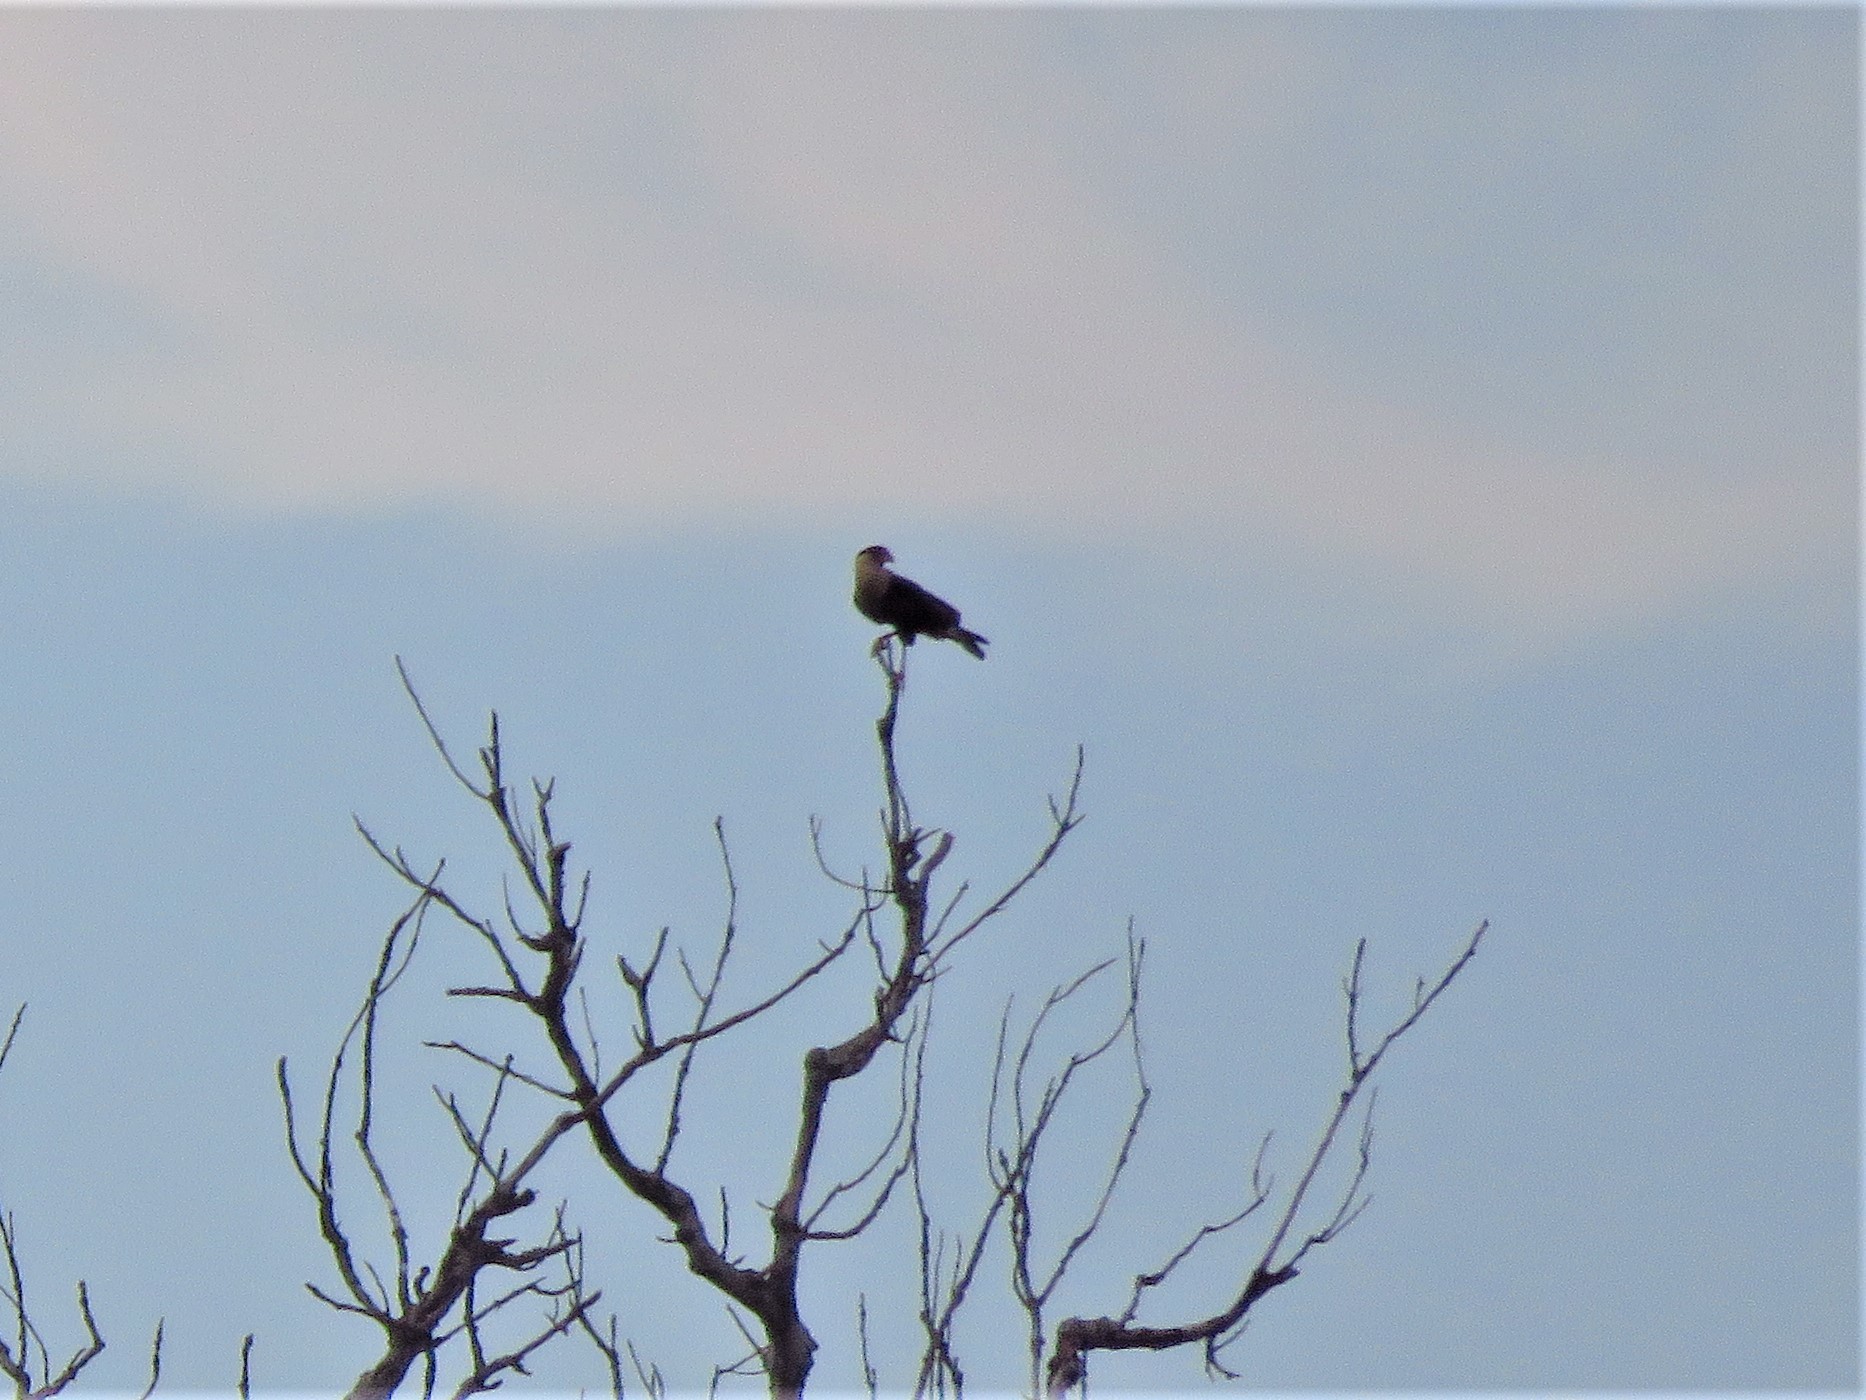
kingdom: Animalia
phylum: Chordata
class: Aves
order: Falconiformes
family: Falconidae
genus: Caracara
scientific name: Caracara plancus
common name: Southern caracara
